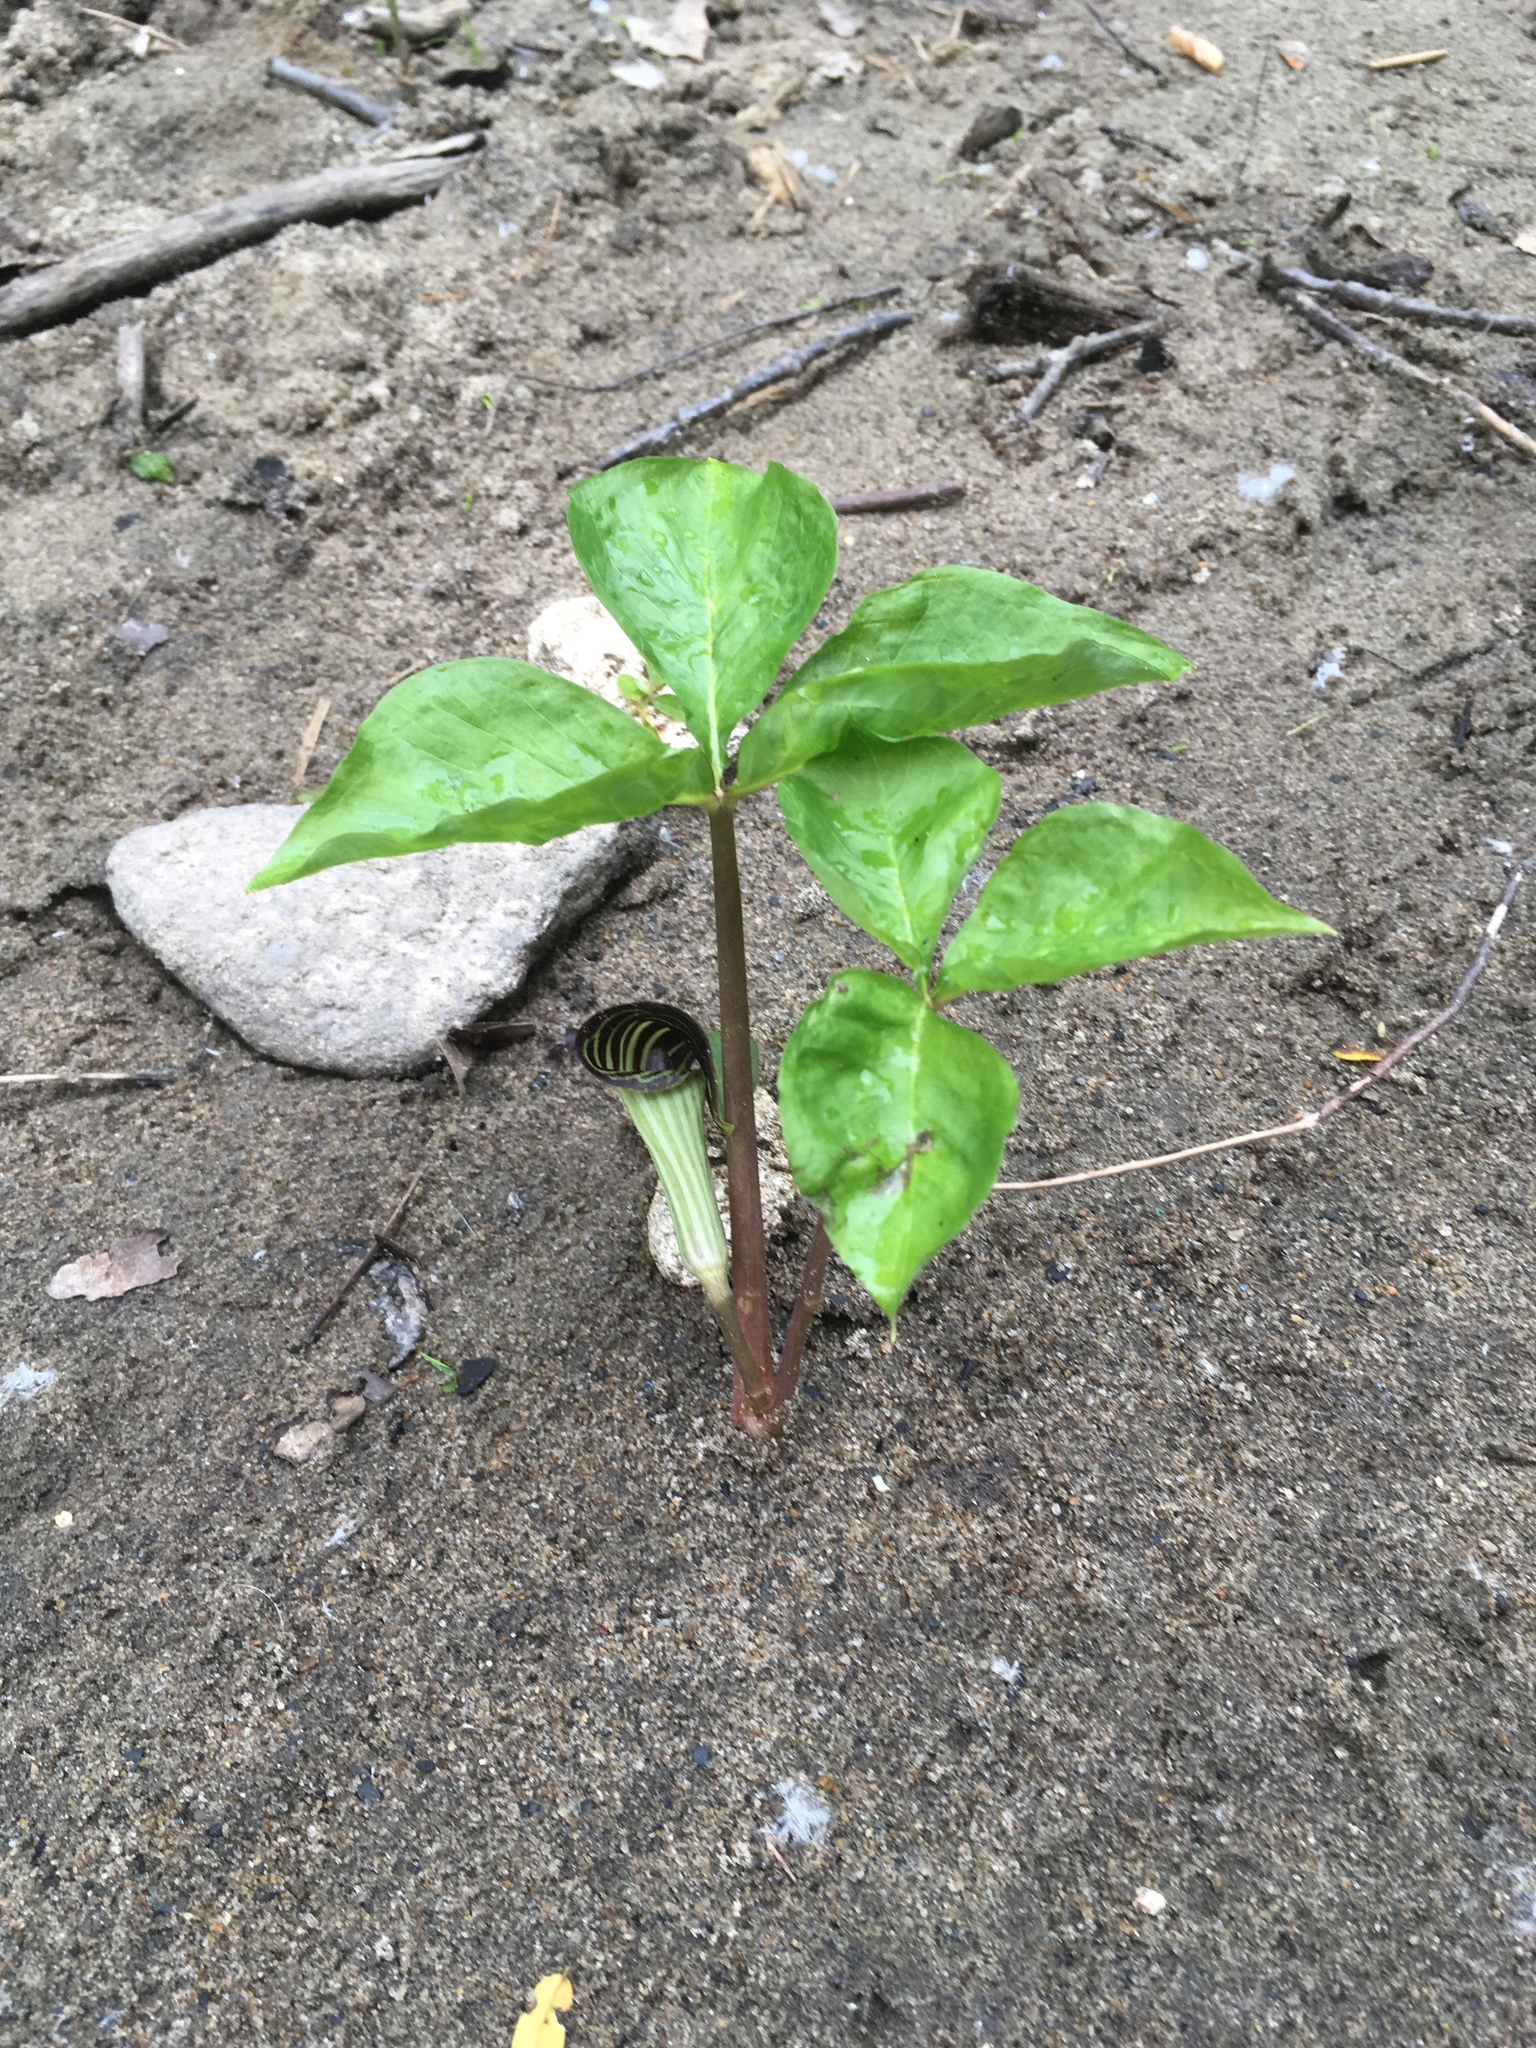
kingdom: Plantae
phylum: Tracheophyta
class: Liliopsida
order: Alismatales
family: Araceae
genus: Arisaema
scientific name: Arisaema triphyllum
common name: Jack-in-the-pulpit
